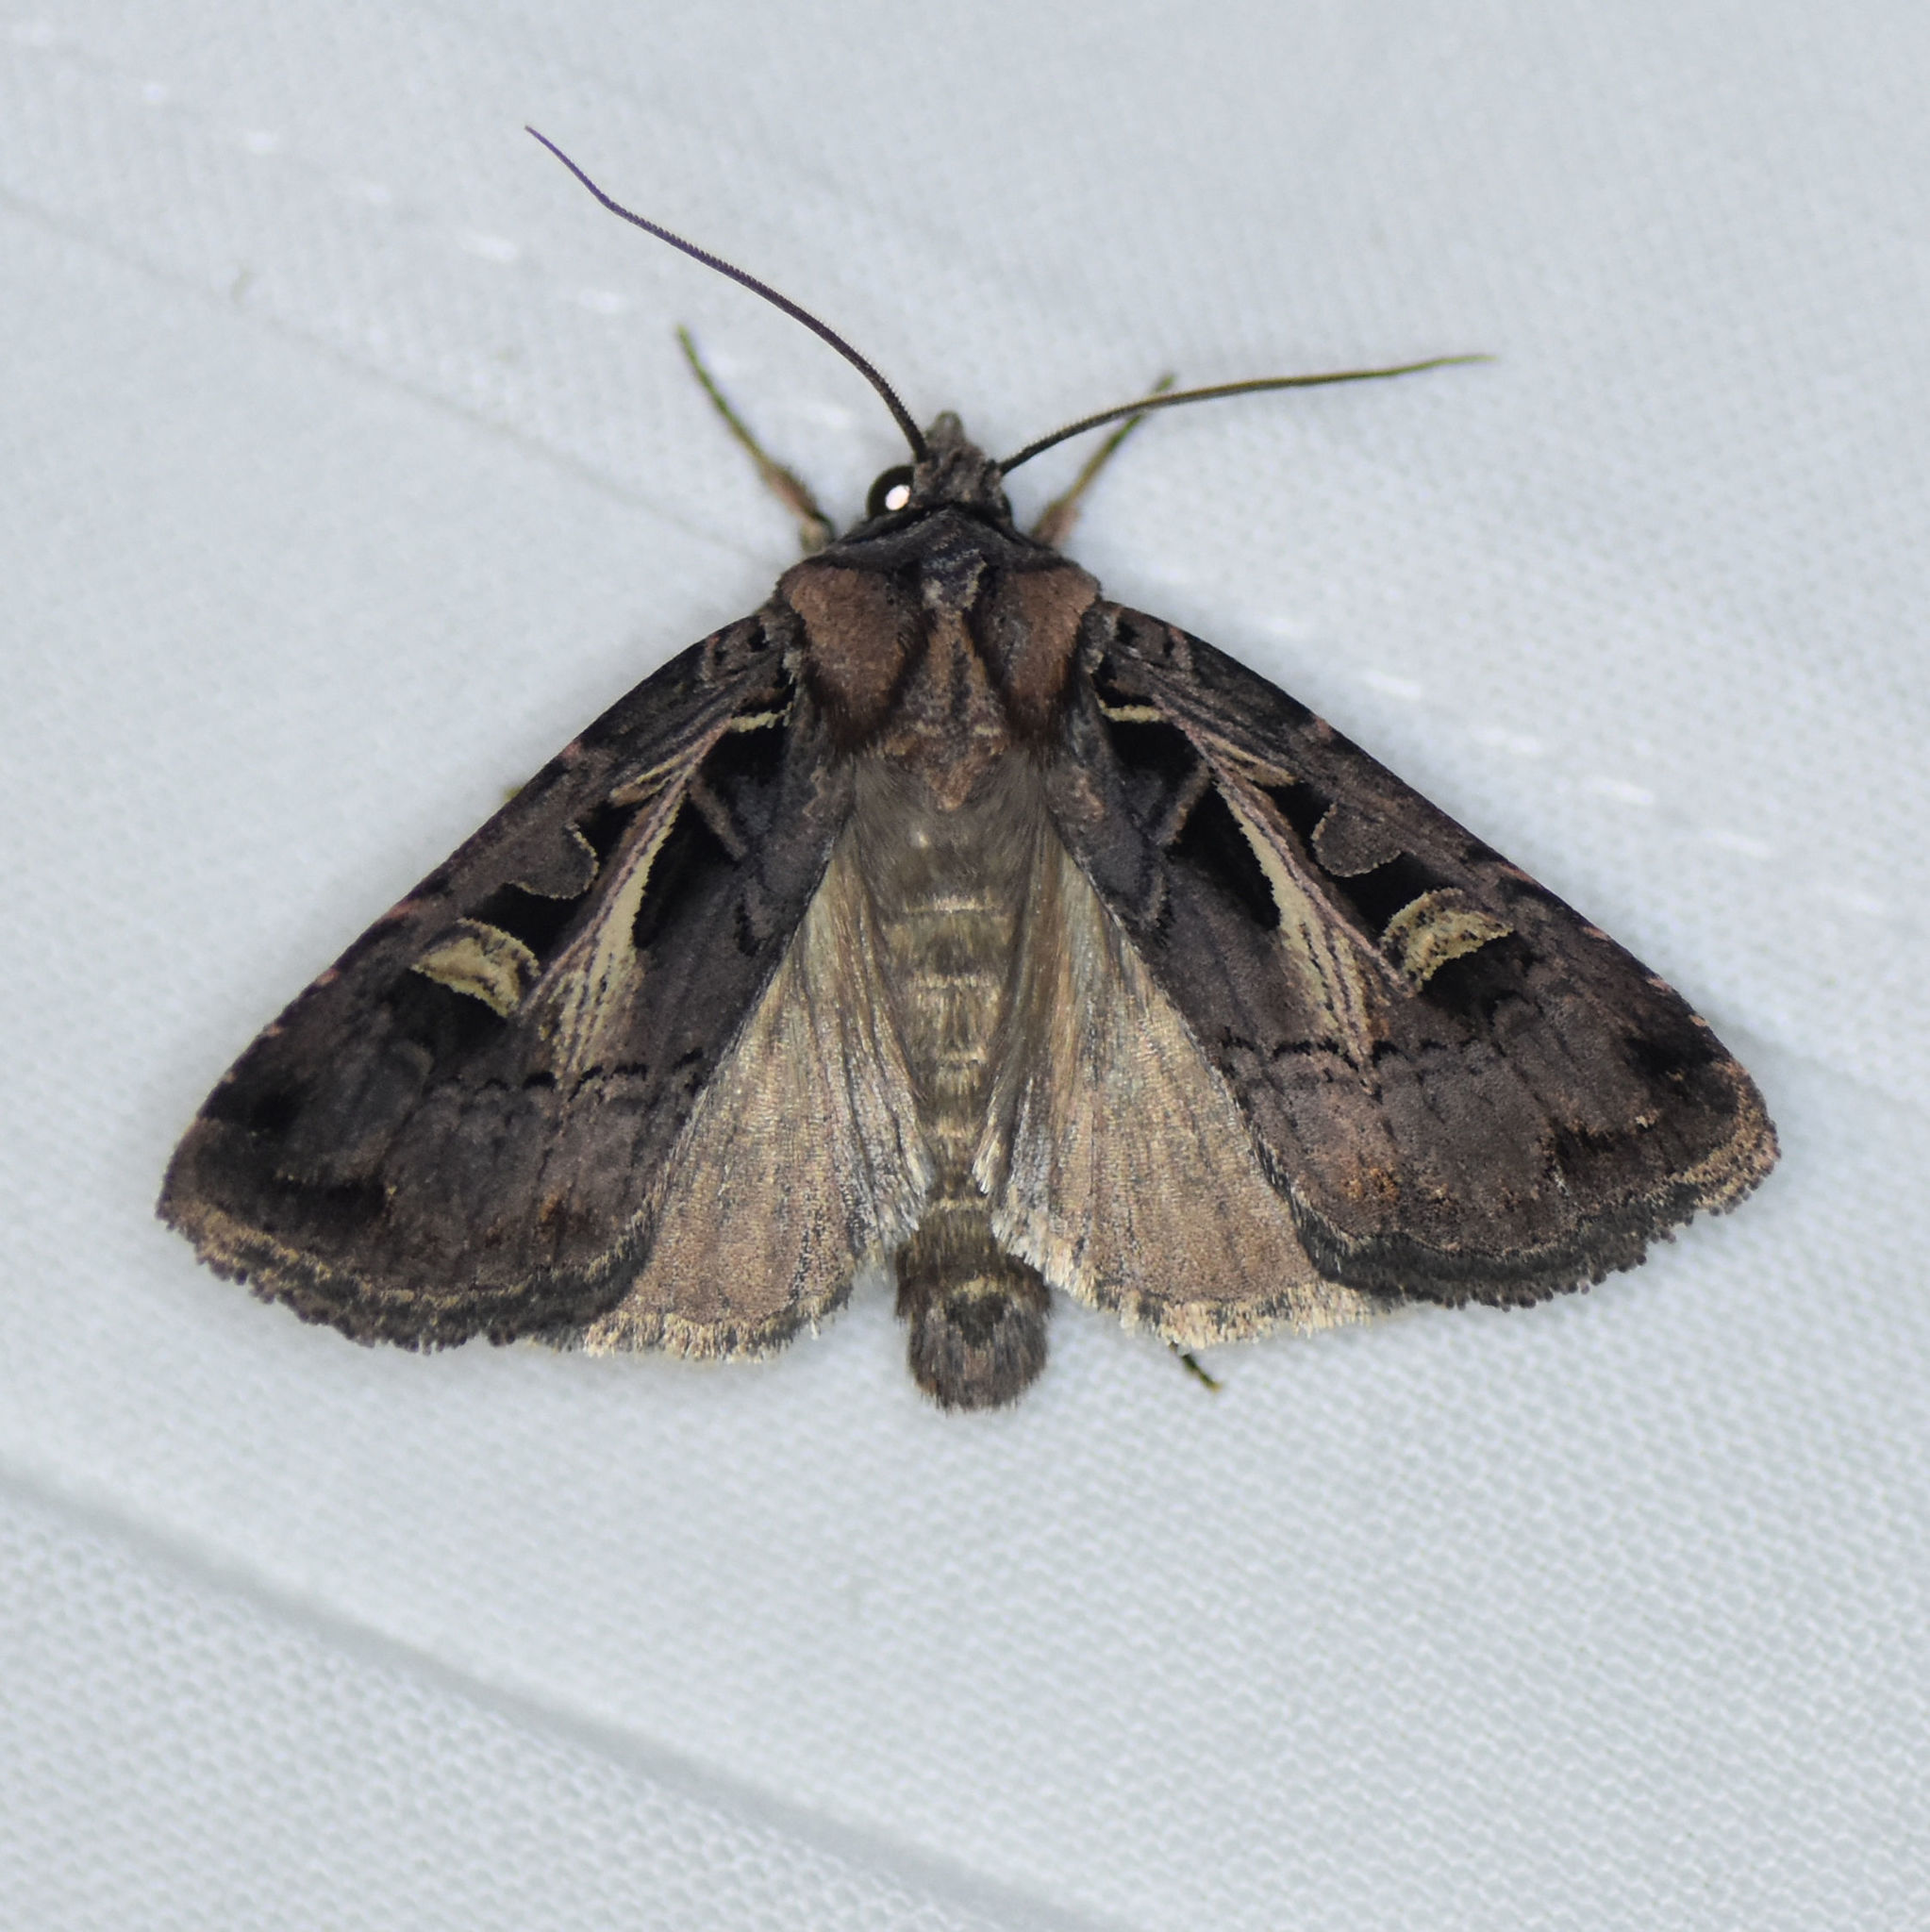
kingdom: Animalia
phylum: Arthropoda
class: Insecta
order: Lepidoptera
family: Noctuidae
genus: Feltia
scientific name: Feltia herilis
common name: Master's dart
